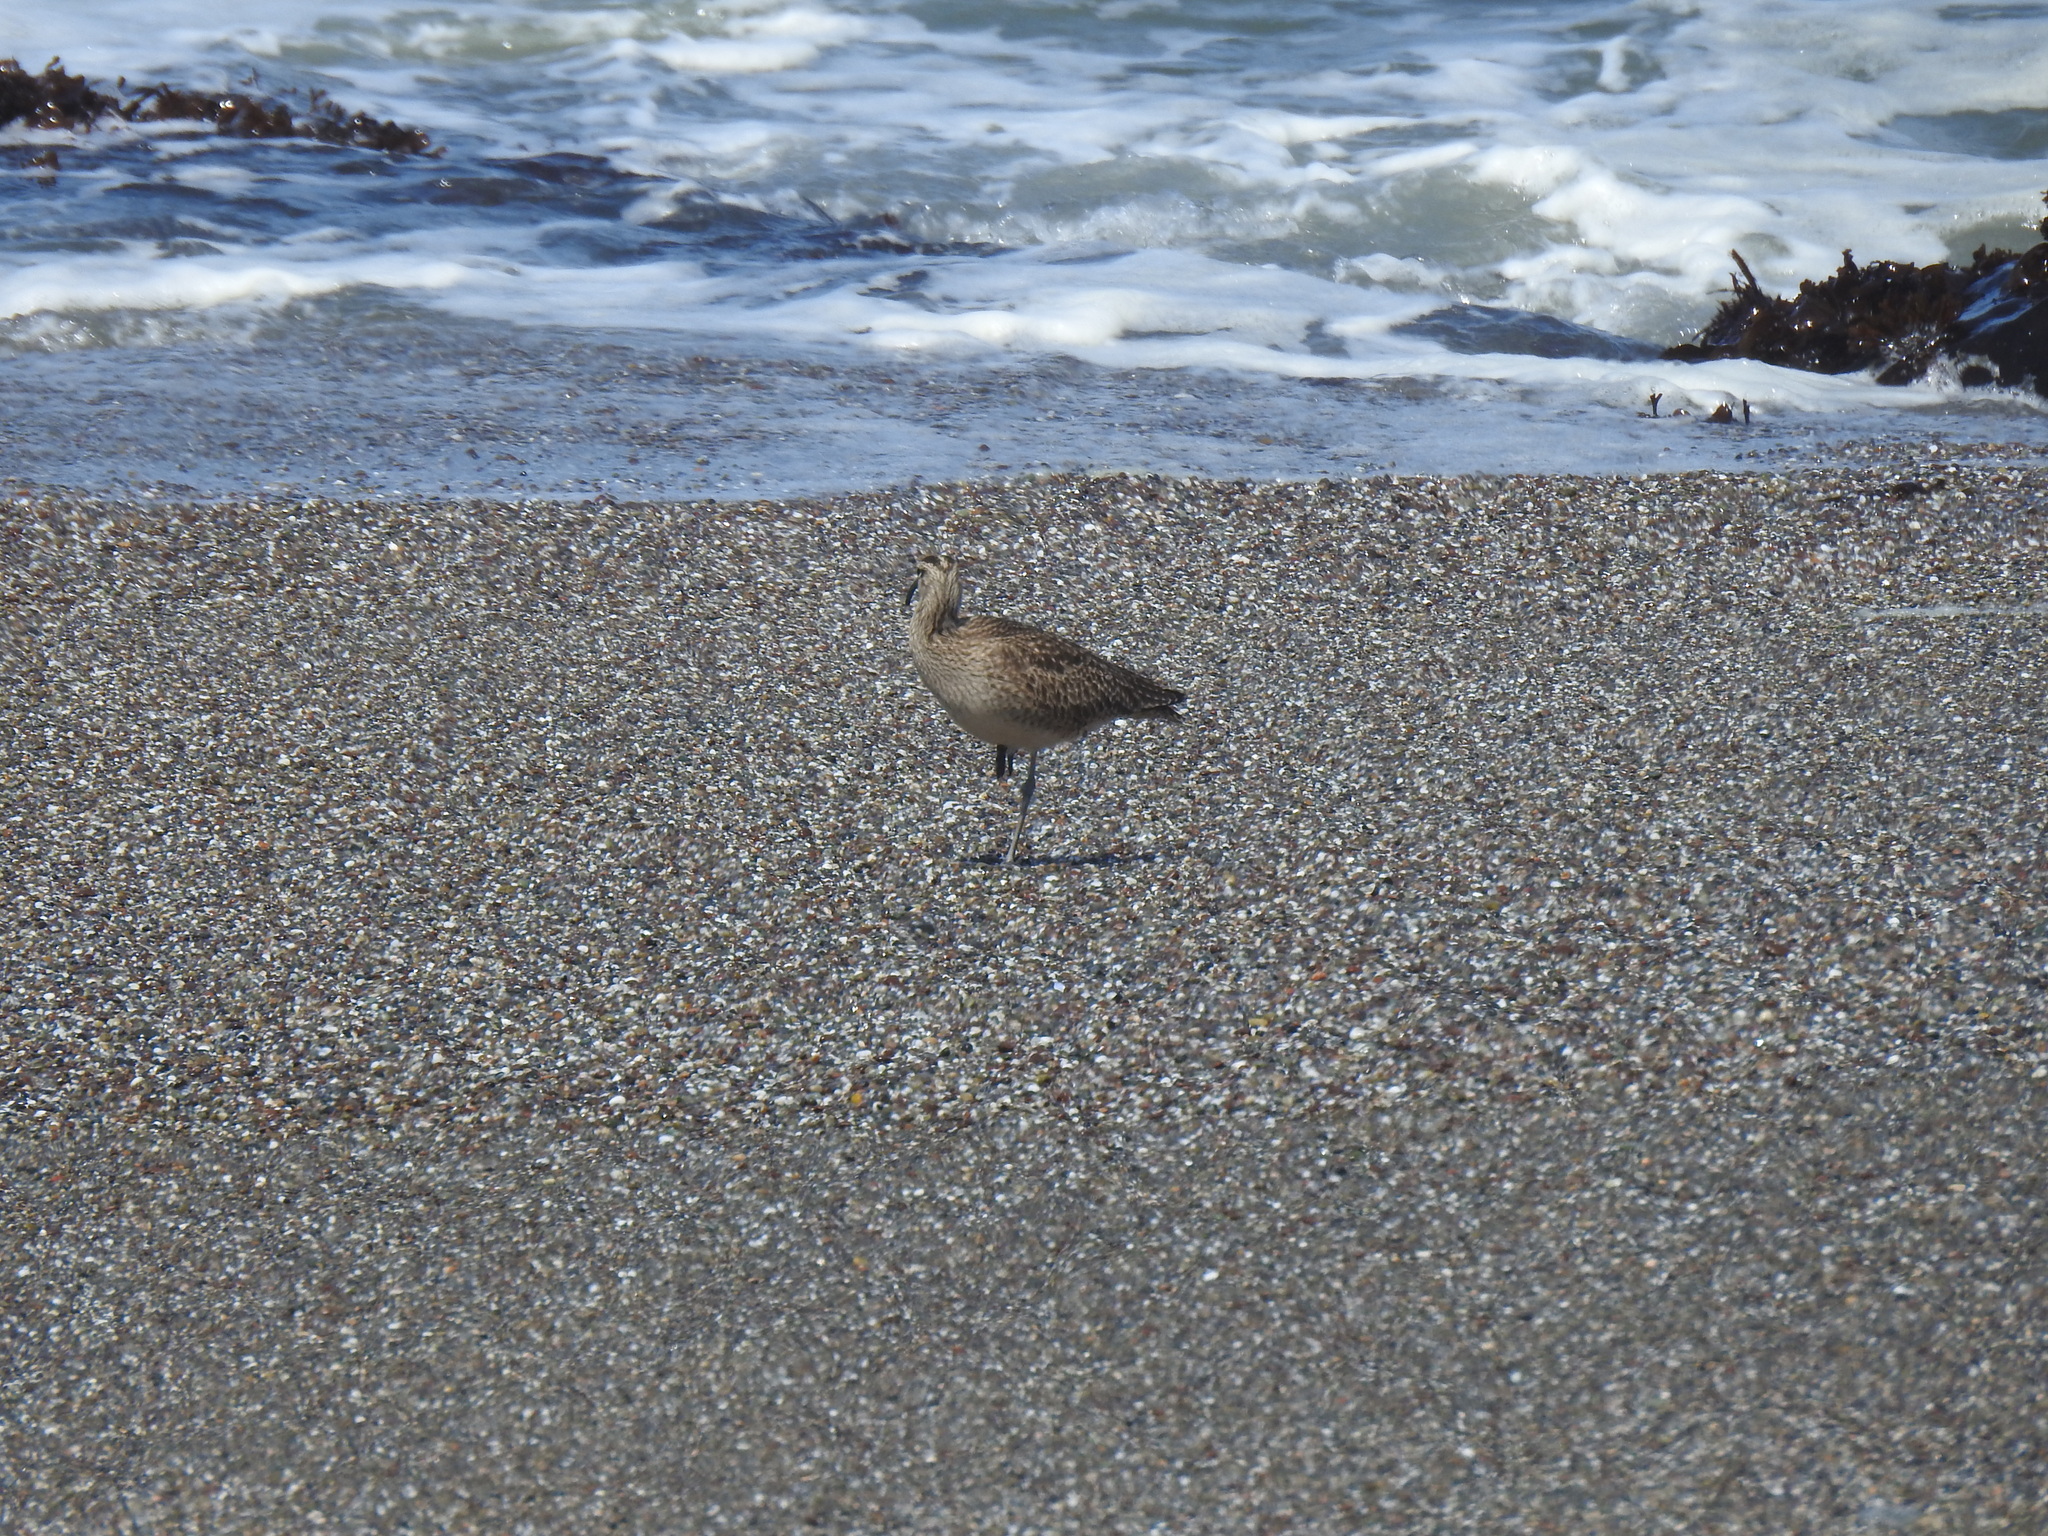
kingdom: Animalia
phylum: Chordata
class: Aves
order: Charadriiformes
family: Scolopacidae
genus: Numenius
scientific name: Numenius phaeopus
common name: Whimbrel
